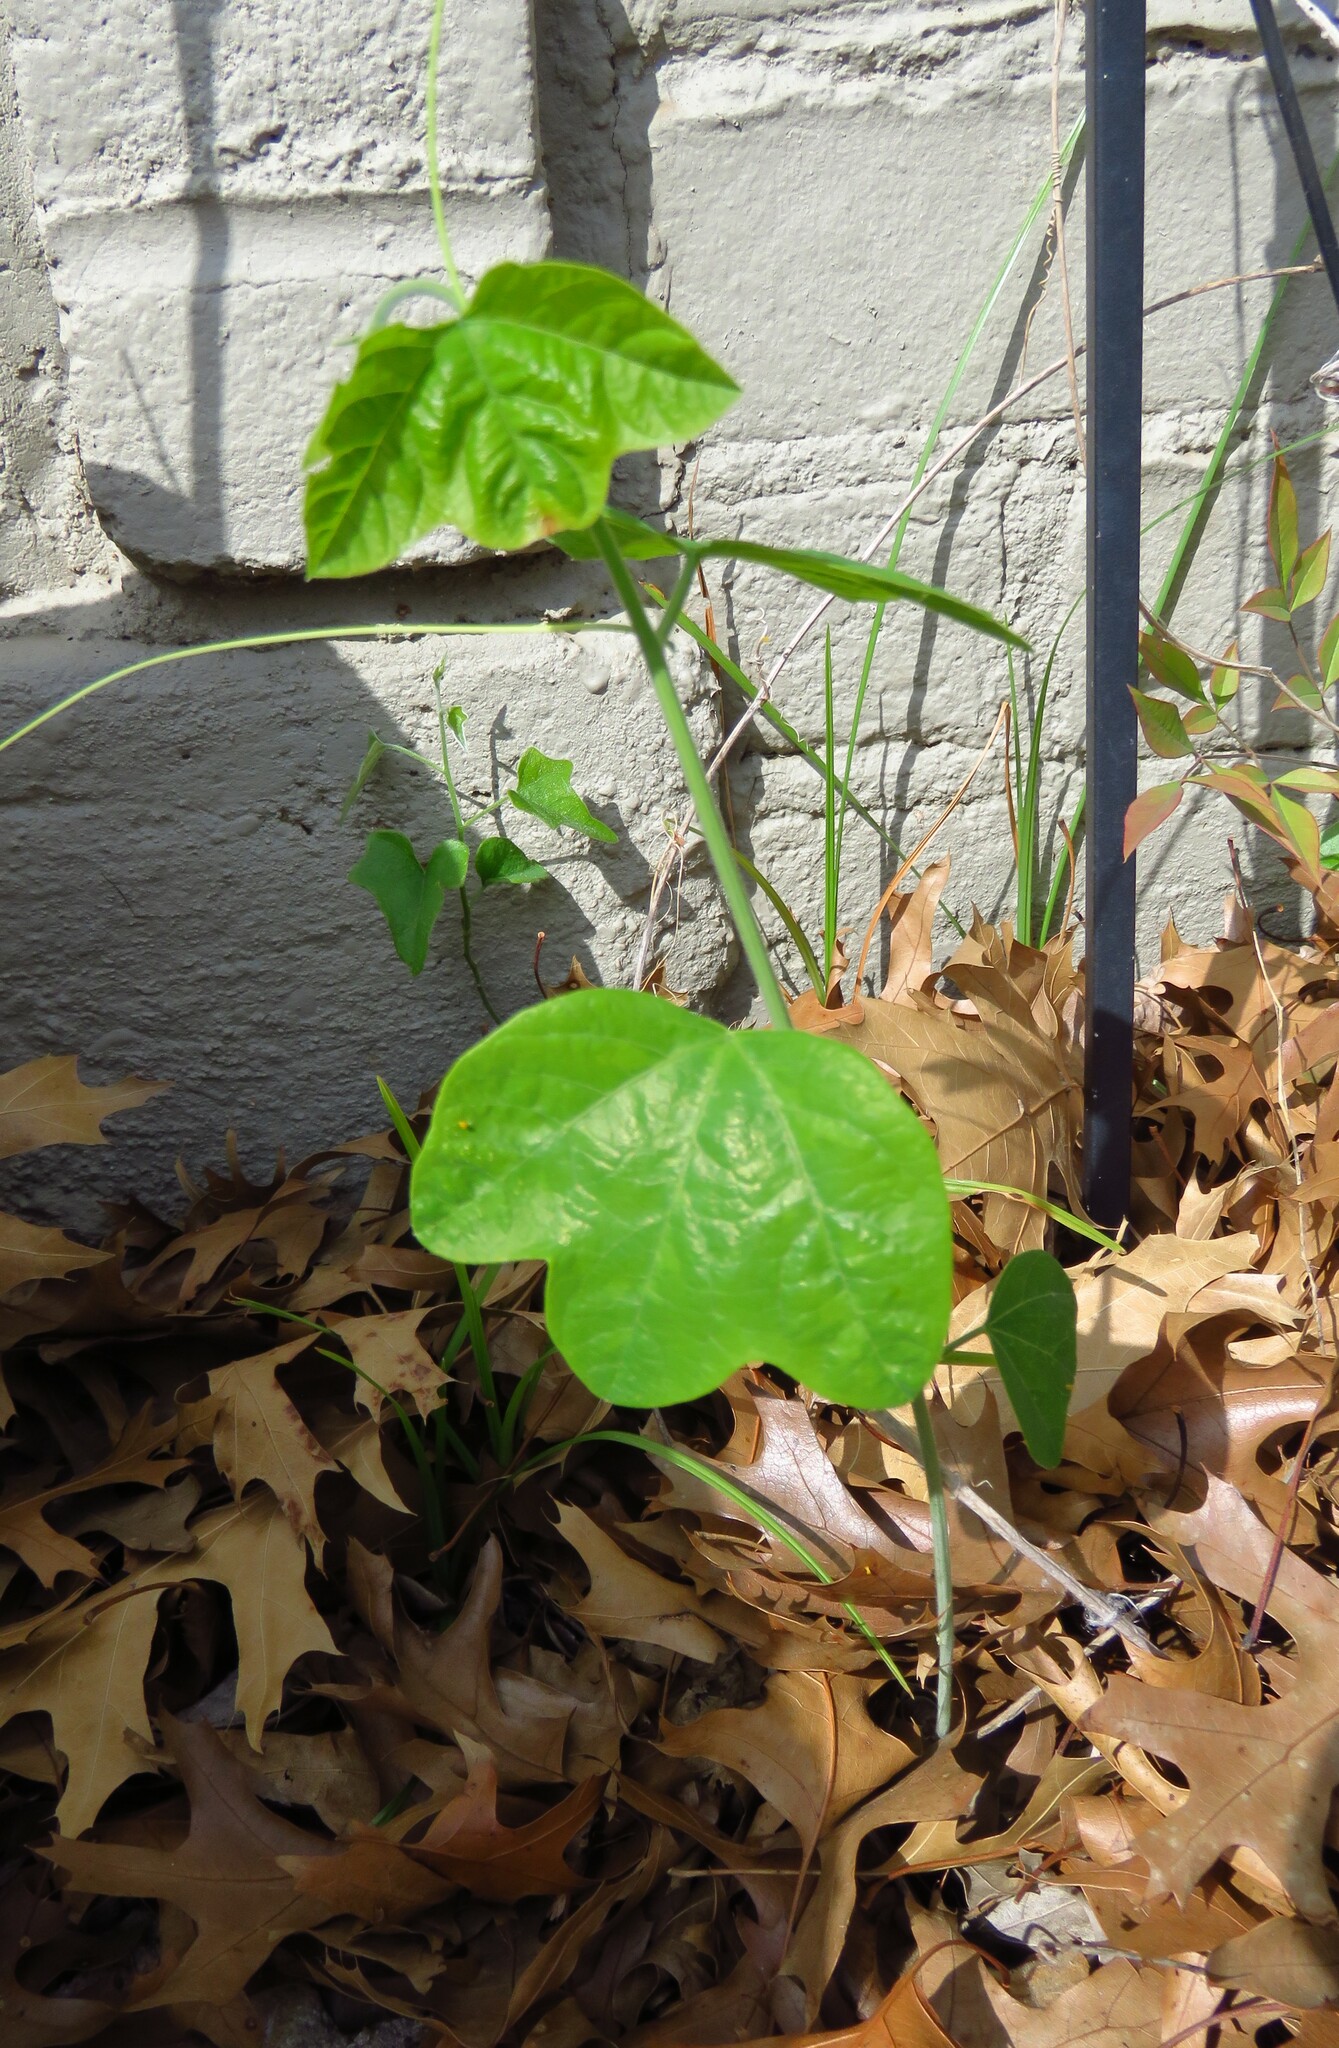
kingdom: Plantae
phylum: Tracheophyta
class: Magnoliopsida
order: Malpighiales
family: Passifloraceae
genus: Passiflora
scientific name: Passiflora lutea
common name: Yellow passionflower
